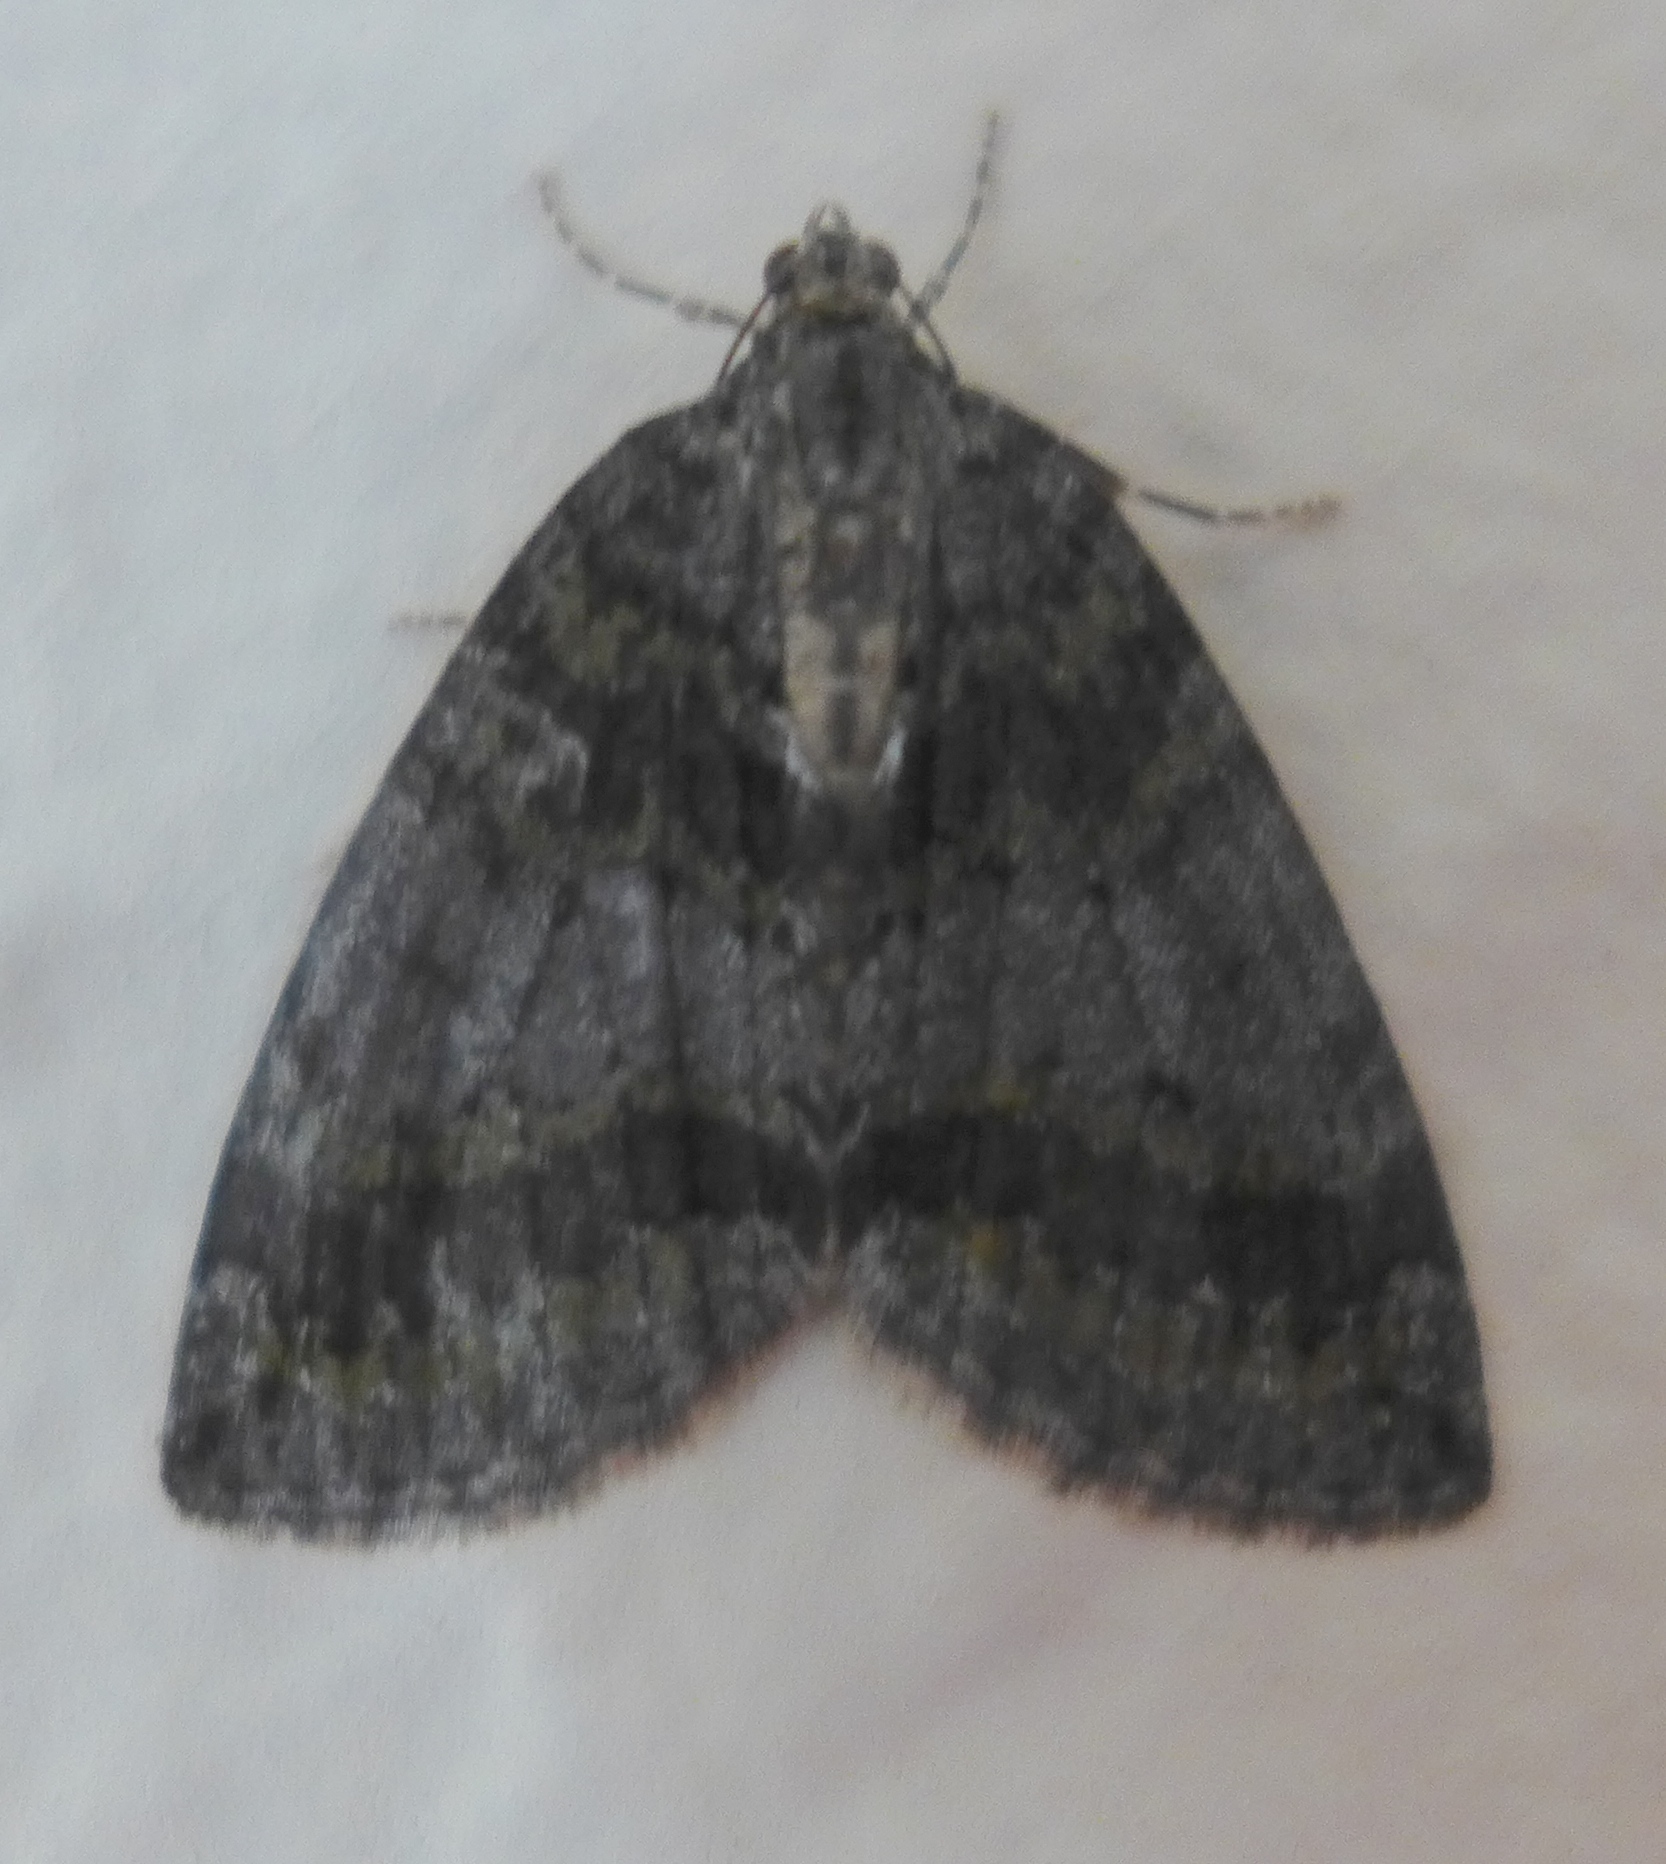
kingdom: Animalia
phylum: Arthropoda
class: Insecta
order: Lepidoptera
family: Geometridae
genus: Hydriomena
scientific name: Hydriomena nubilofasciata
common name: Oak winter highflier moth
